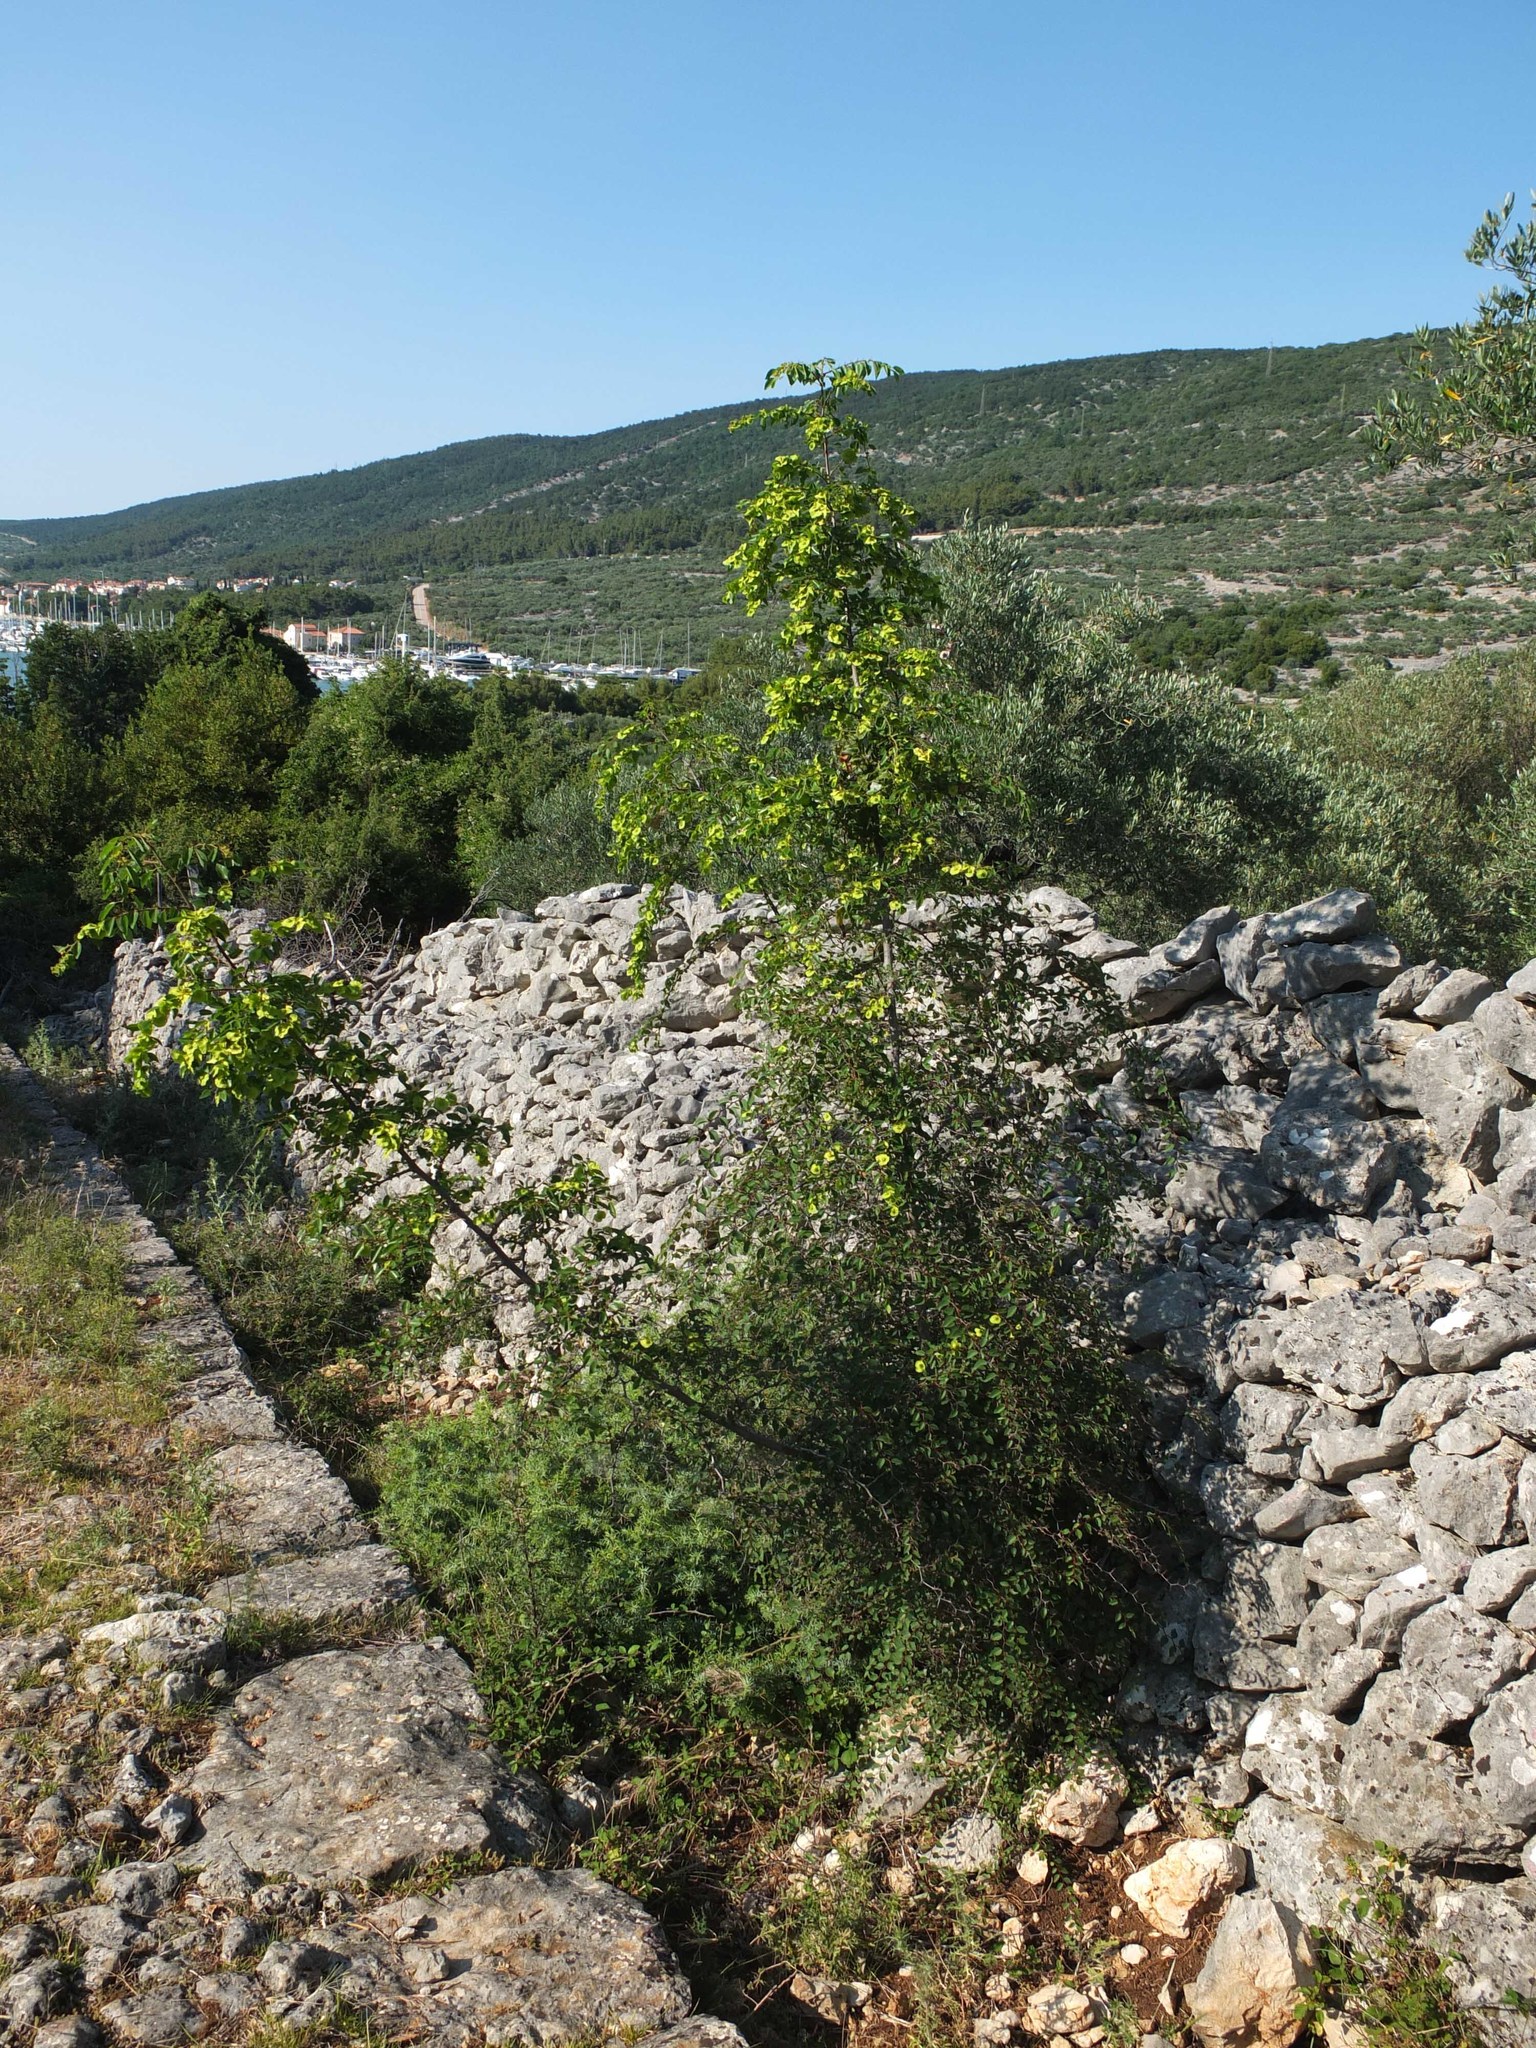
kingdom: Plantae
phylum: Tracheophyta
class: Magnoliopsida
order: Rosales
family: Rhamnaceae
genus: Paliurus
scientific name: Paliurus spina-christi
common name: Jeruselem thorn
